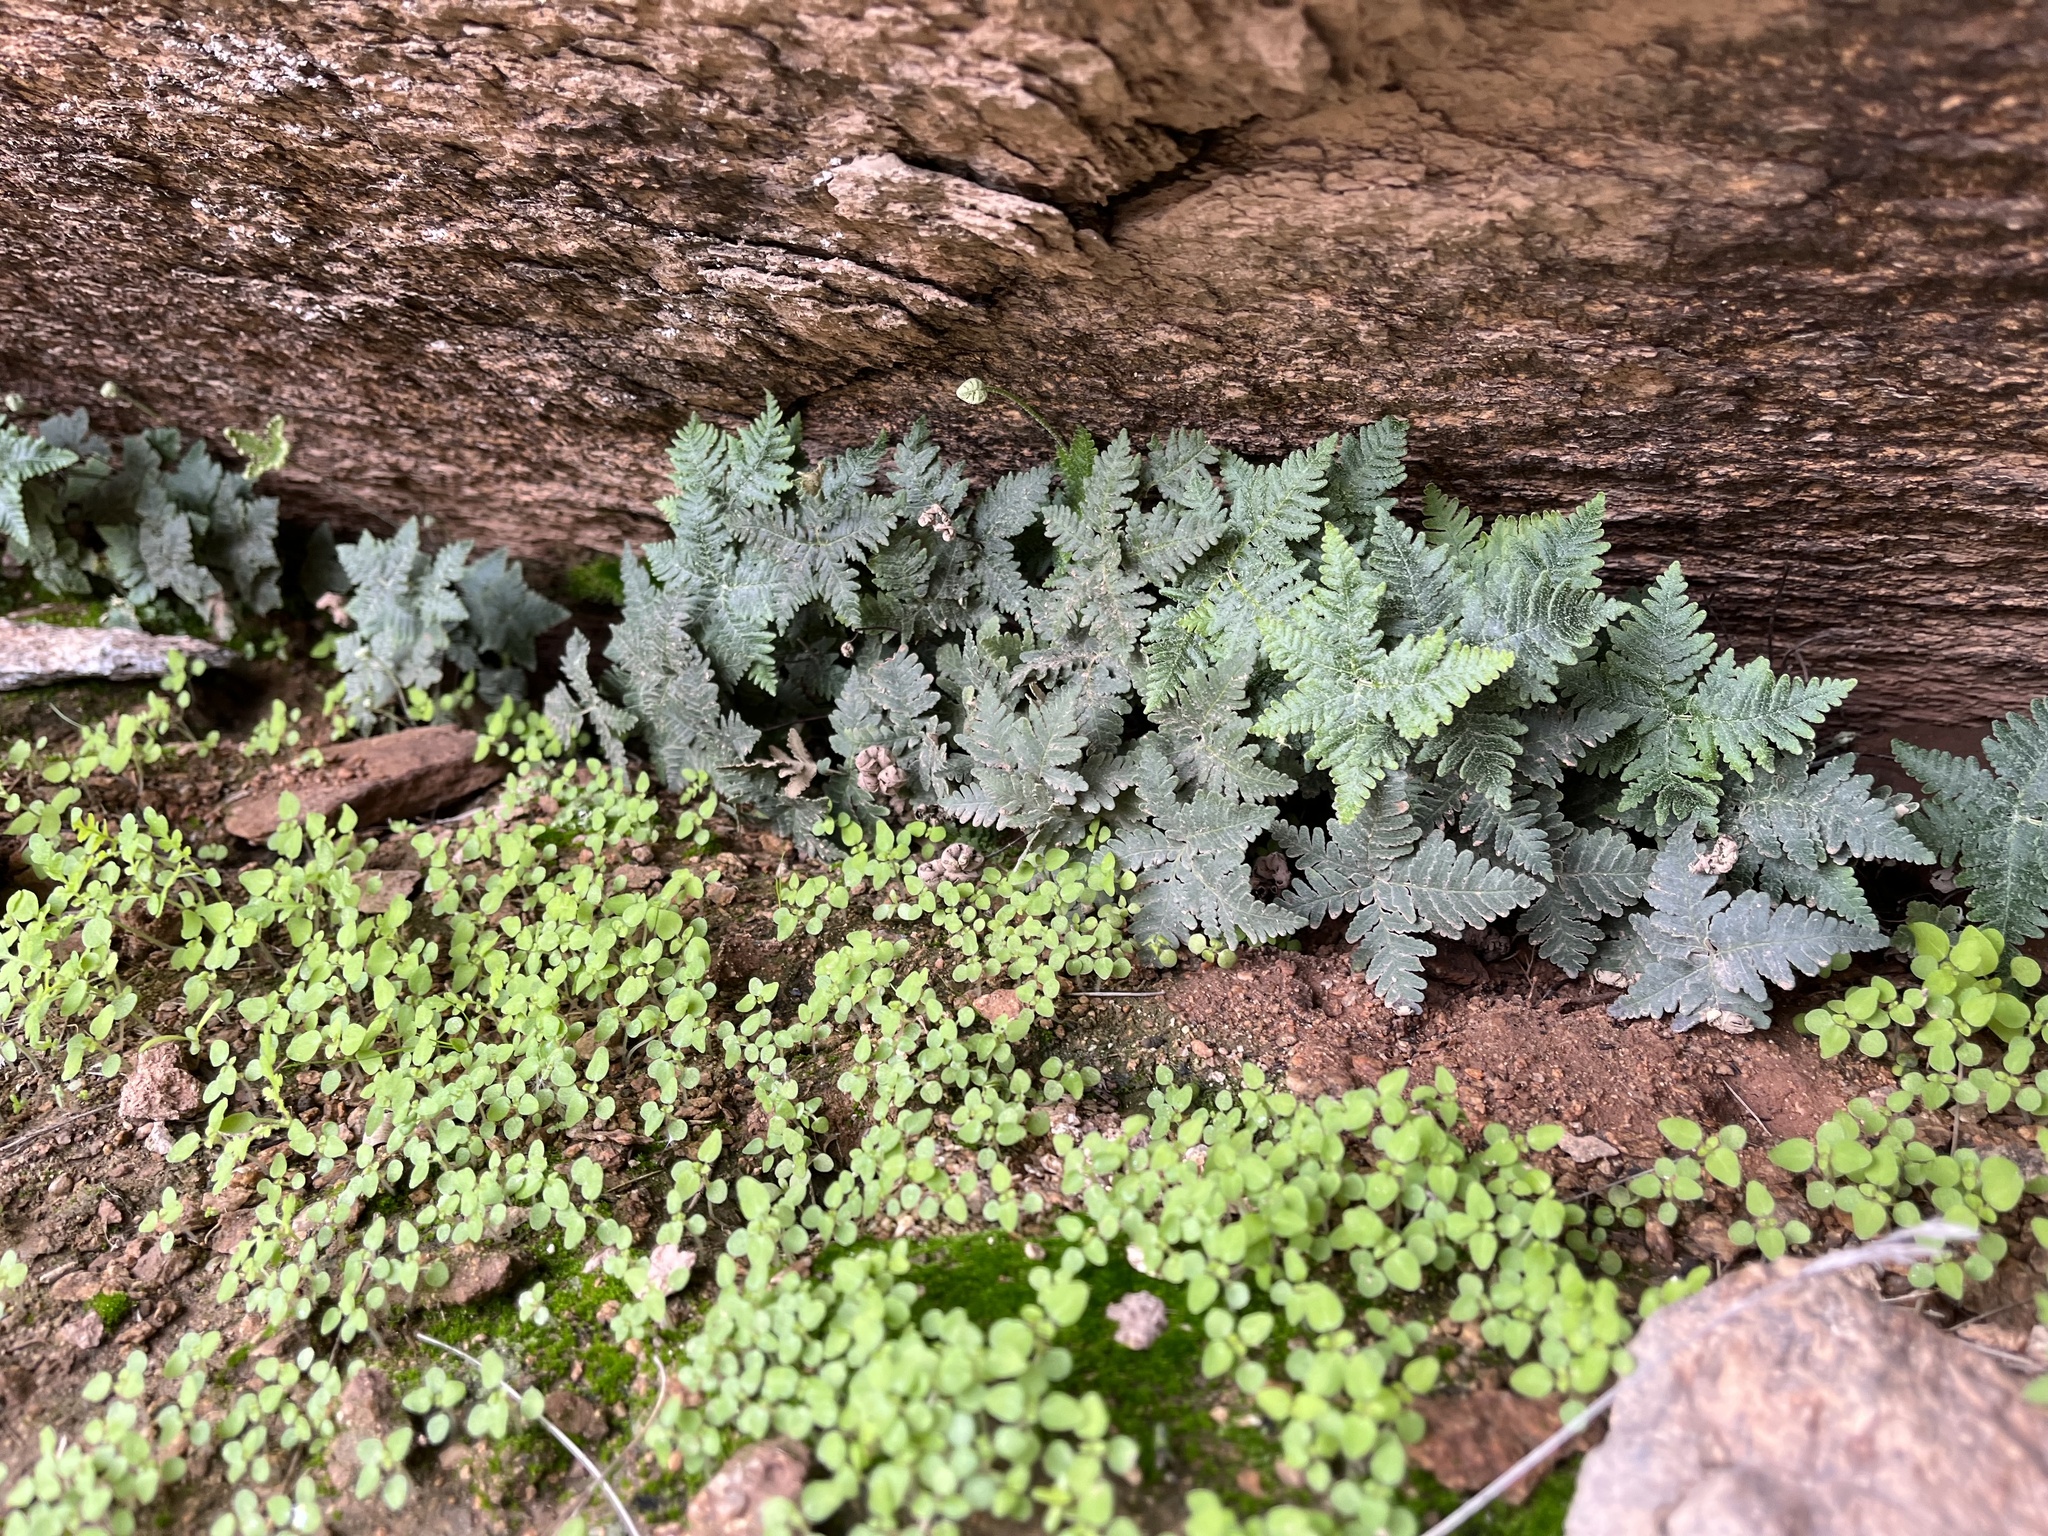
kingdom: Plantae
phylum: Tracheophyta
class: Polypodiopsida
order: Polypodiales
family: Pteridaceae
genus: Notholaena
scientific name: Notholaena standleyi
